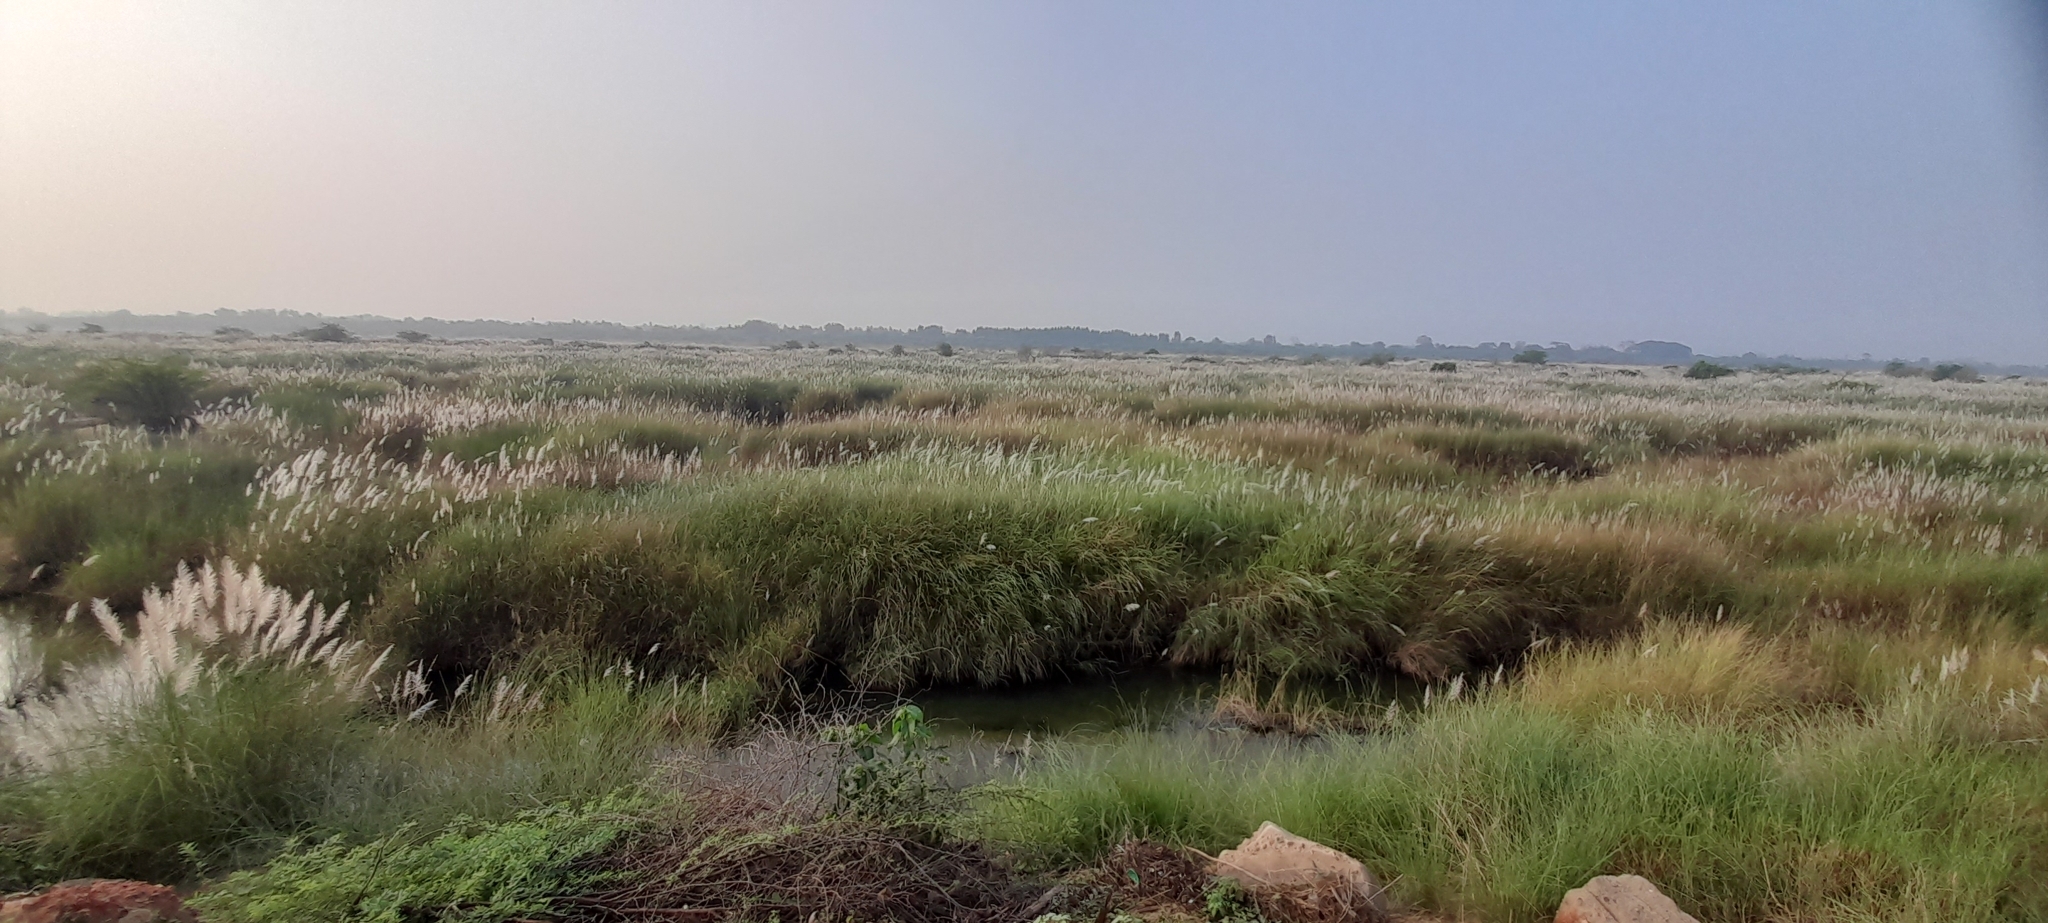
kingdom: Plantae
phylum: Tracheophyta
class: Liliopsida
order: Poales
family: Poaceae
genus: Saccharum
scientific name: Saccharum spontaneum
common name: Wild sugarcane
